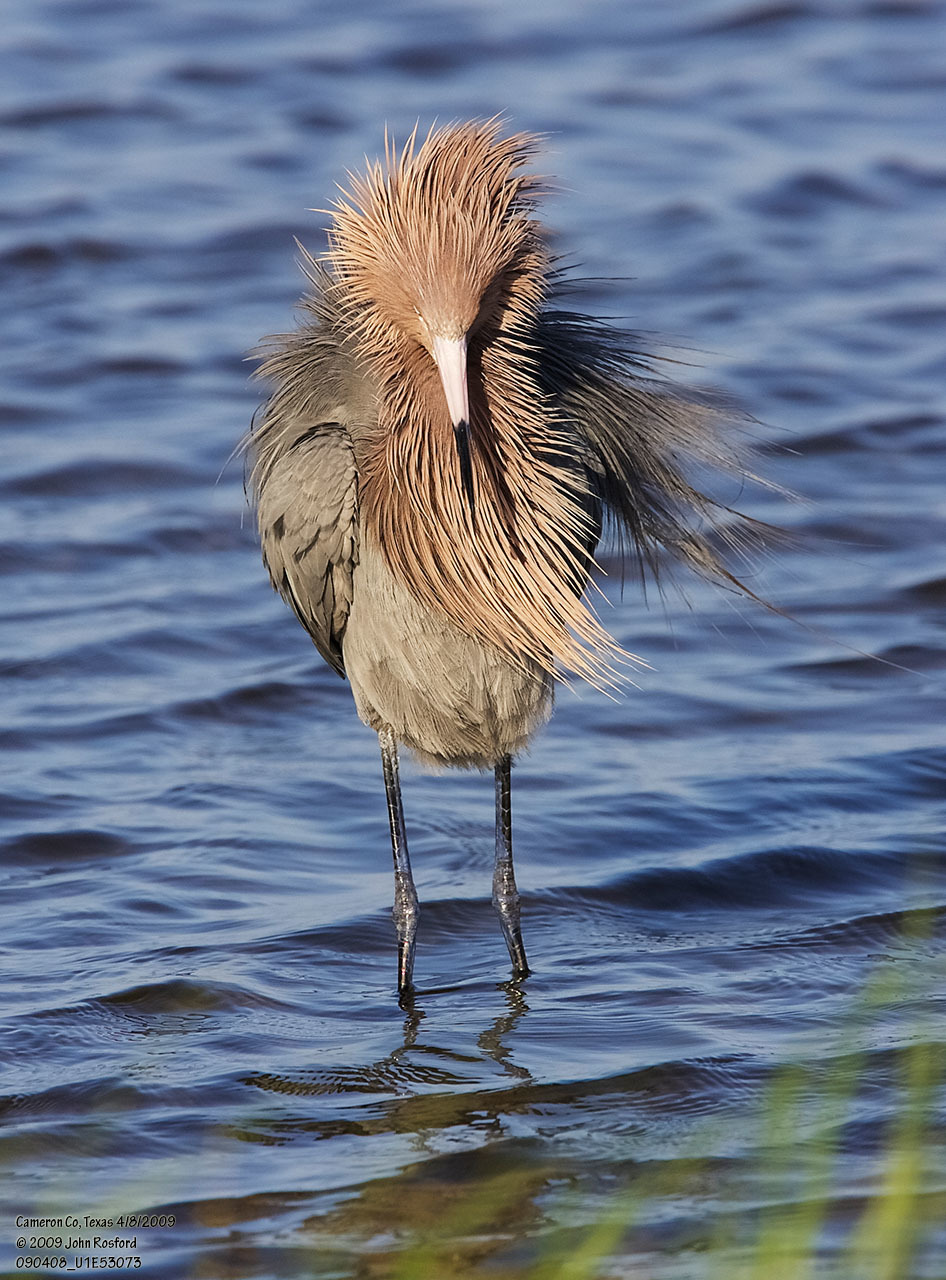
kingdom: Animalia
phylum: Chordata
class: Aves
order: Pelecaniformes
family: Ardeidae
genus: Egretta
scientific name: Egretta rufescens
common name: Reddish egret
